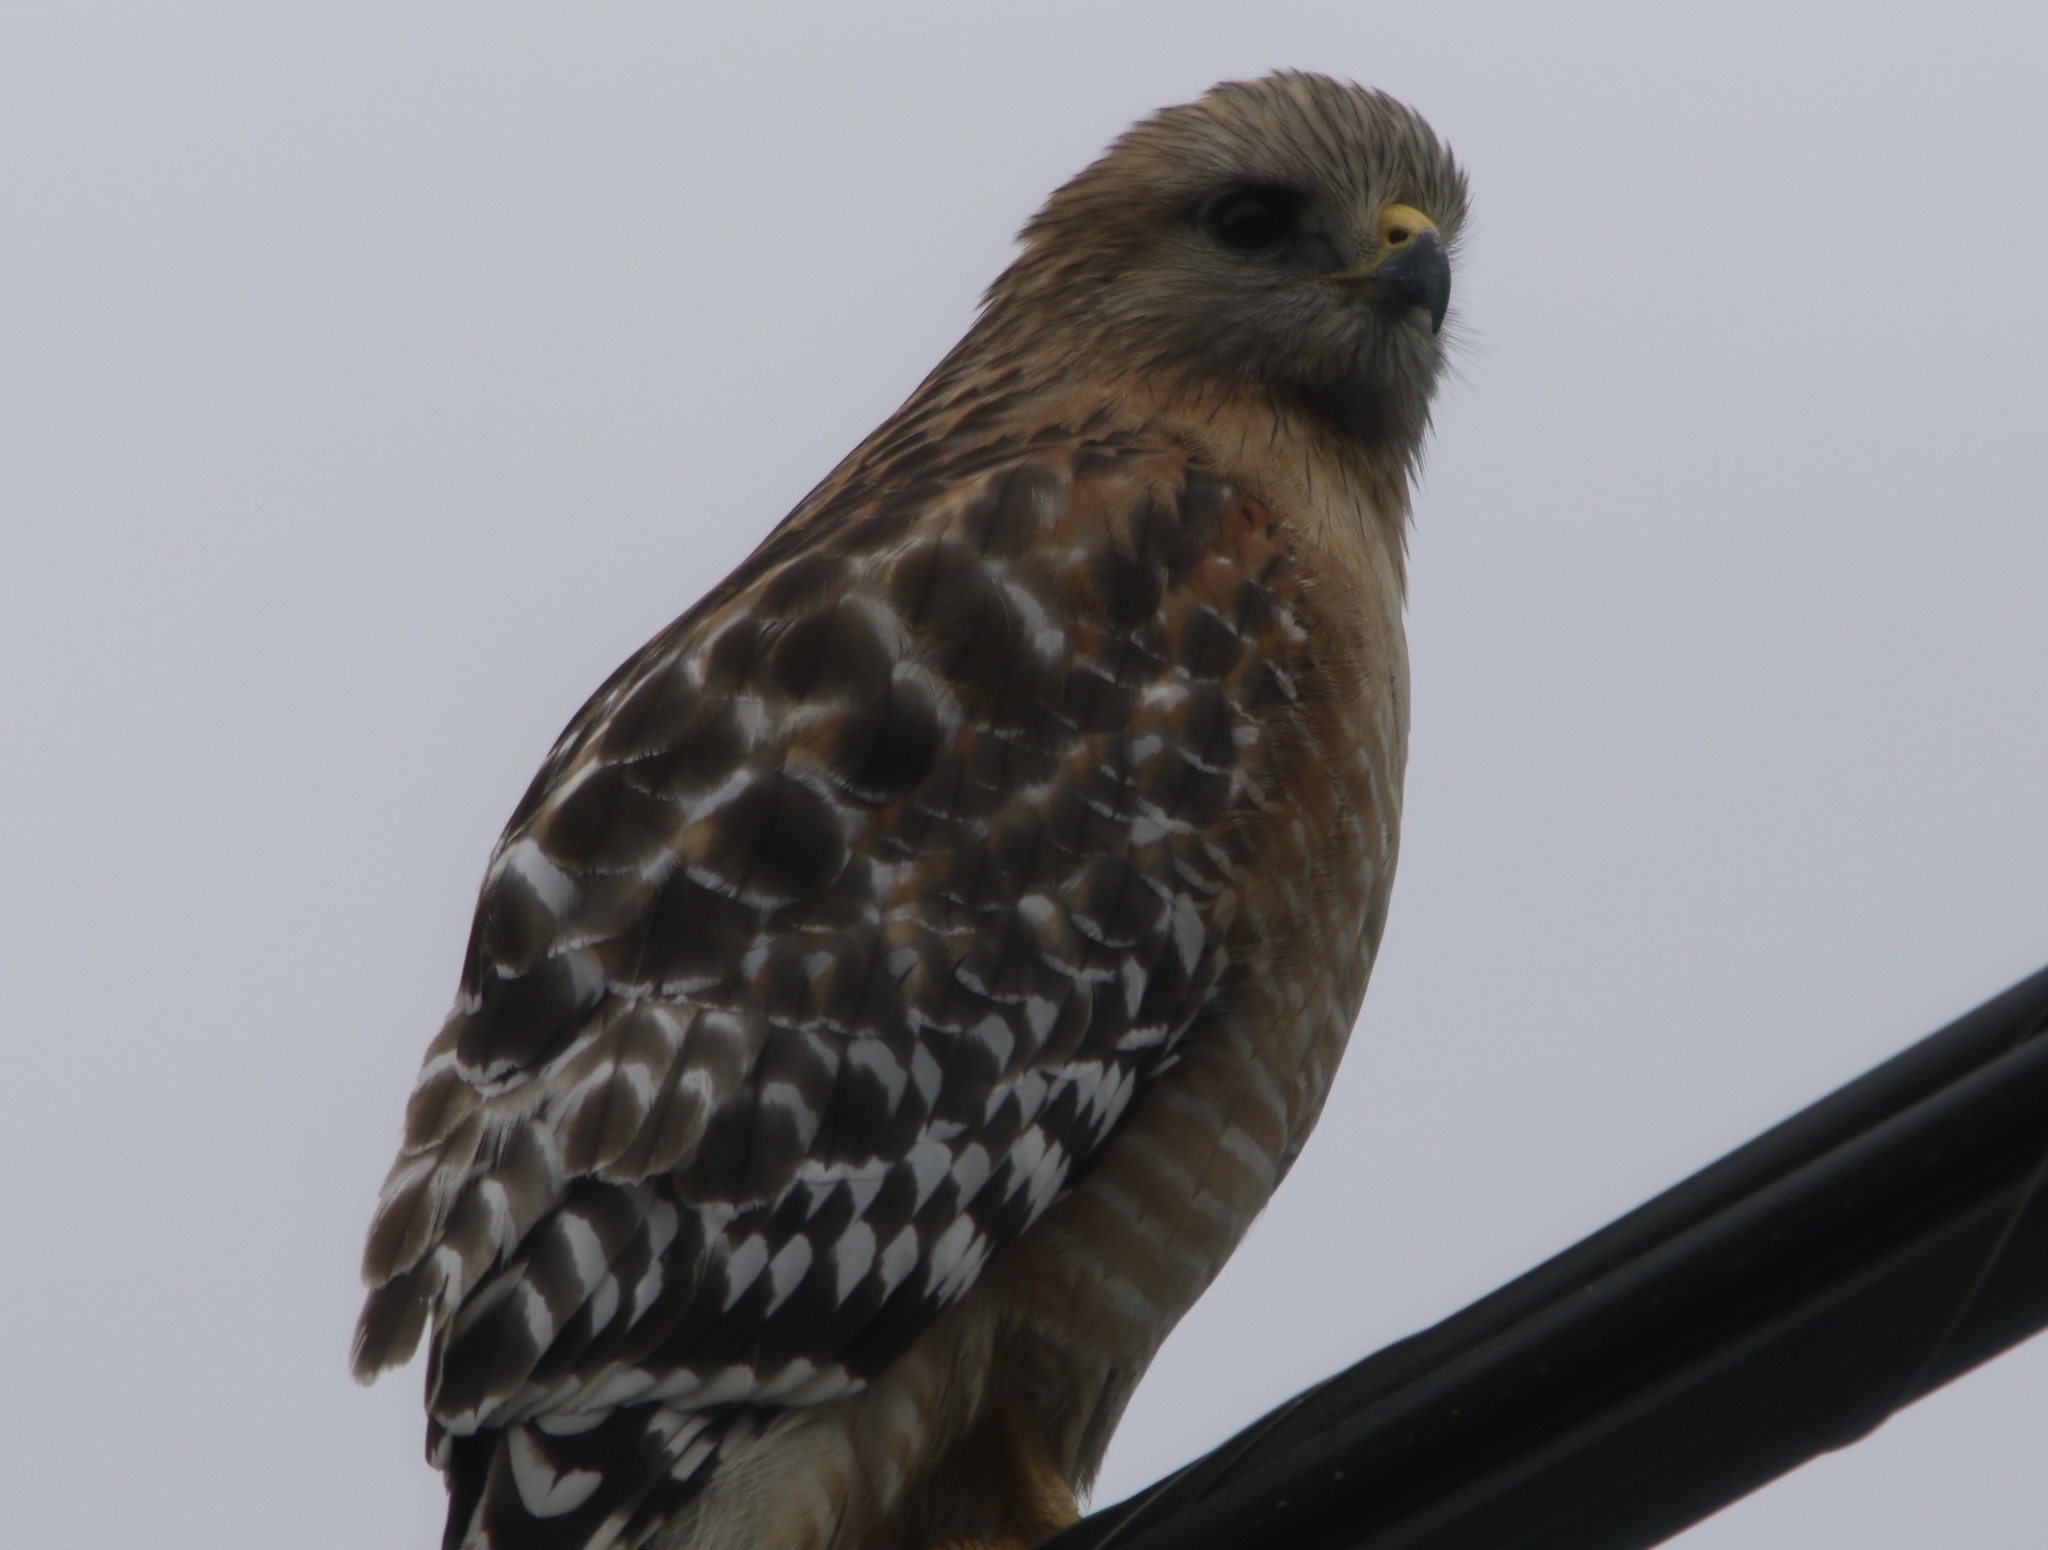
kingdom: Animalia
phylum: Chordata
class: Aves
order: Accipitriformes
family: Accipitridae
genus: Buteo
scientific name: Buteo lineatus
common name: Red-shouldered hawk
